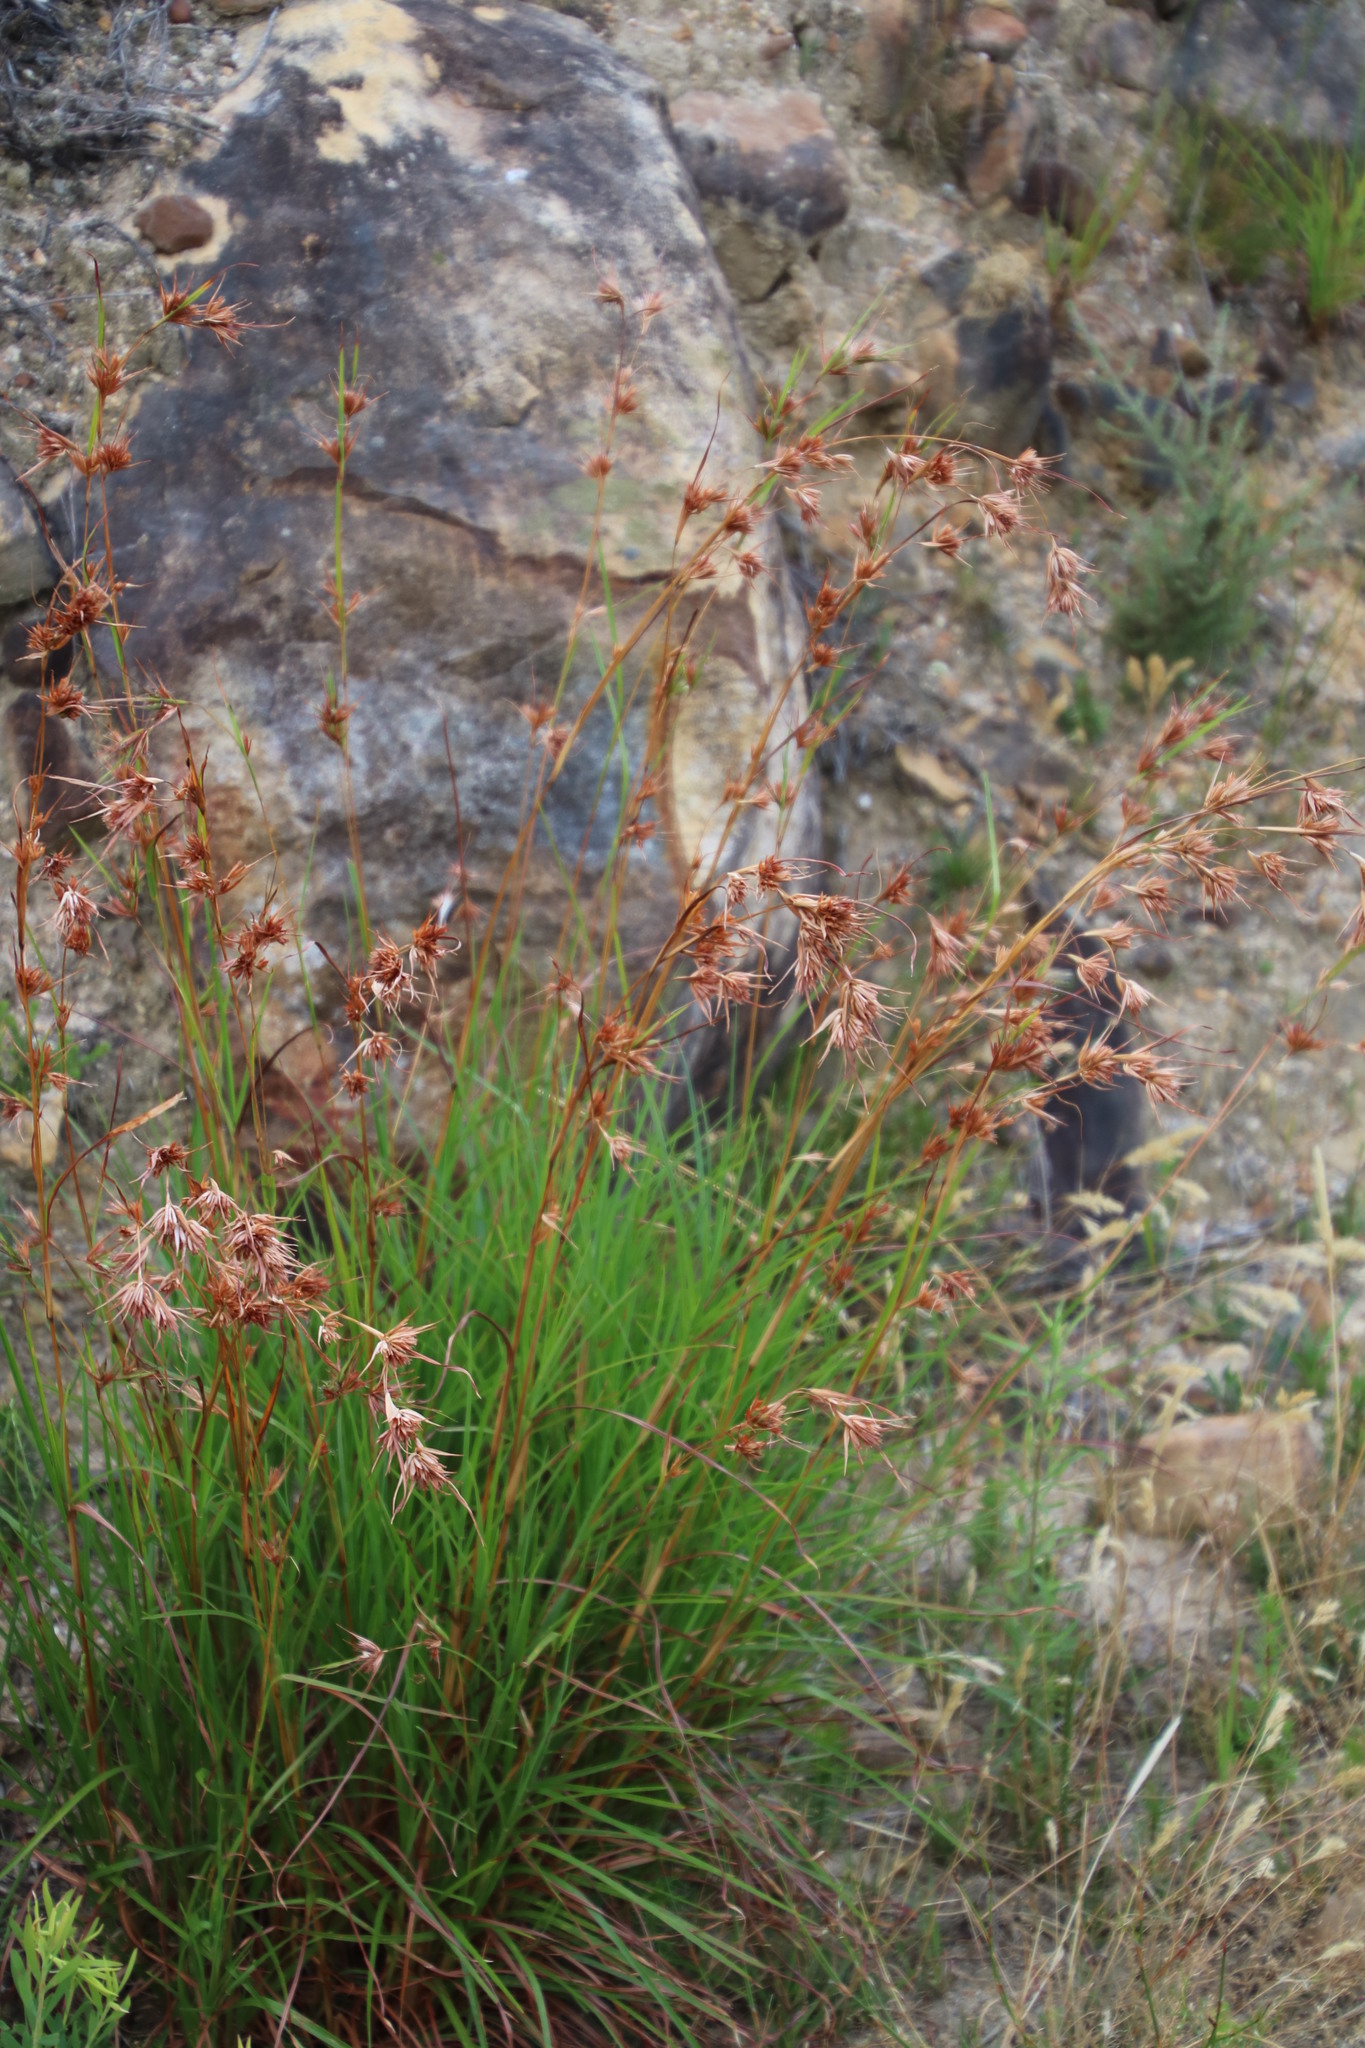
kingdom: Plantae
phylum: Tracheophyta
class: Liliopsida
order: Poales
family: Poaceae
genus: Themeda
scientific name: Themeda triandra
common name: Kangaroo grass
